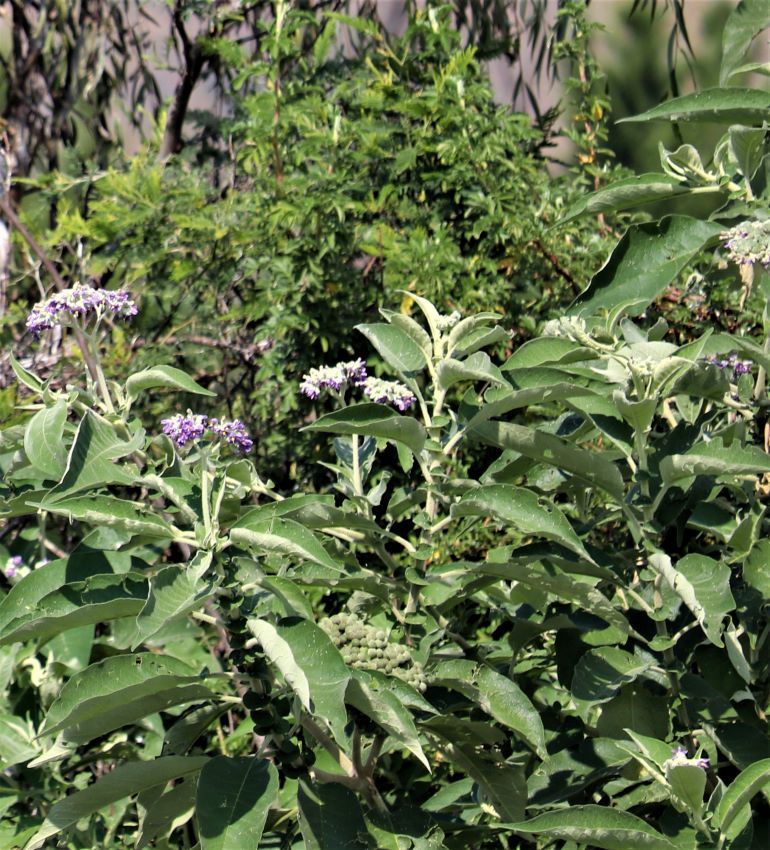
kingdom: Plantae
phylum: Tracheophyta
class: Magnoliopsida
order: Solanales
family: Solanaceae
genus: Solanum
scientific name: Solanum mauritianum
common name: Earleaf nightshade
